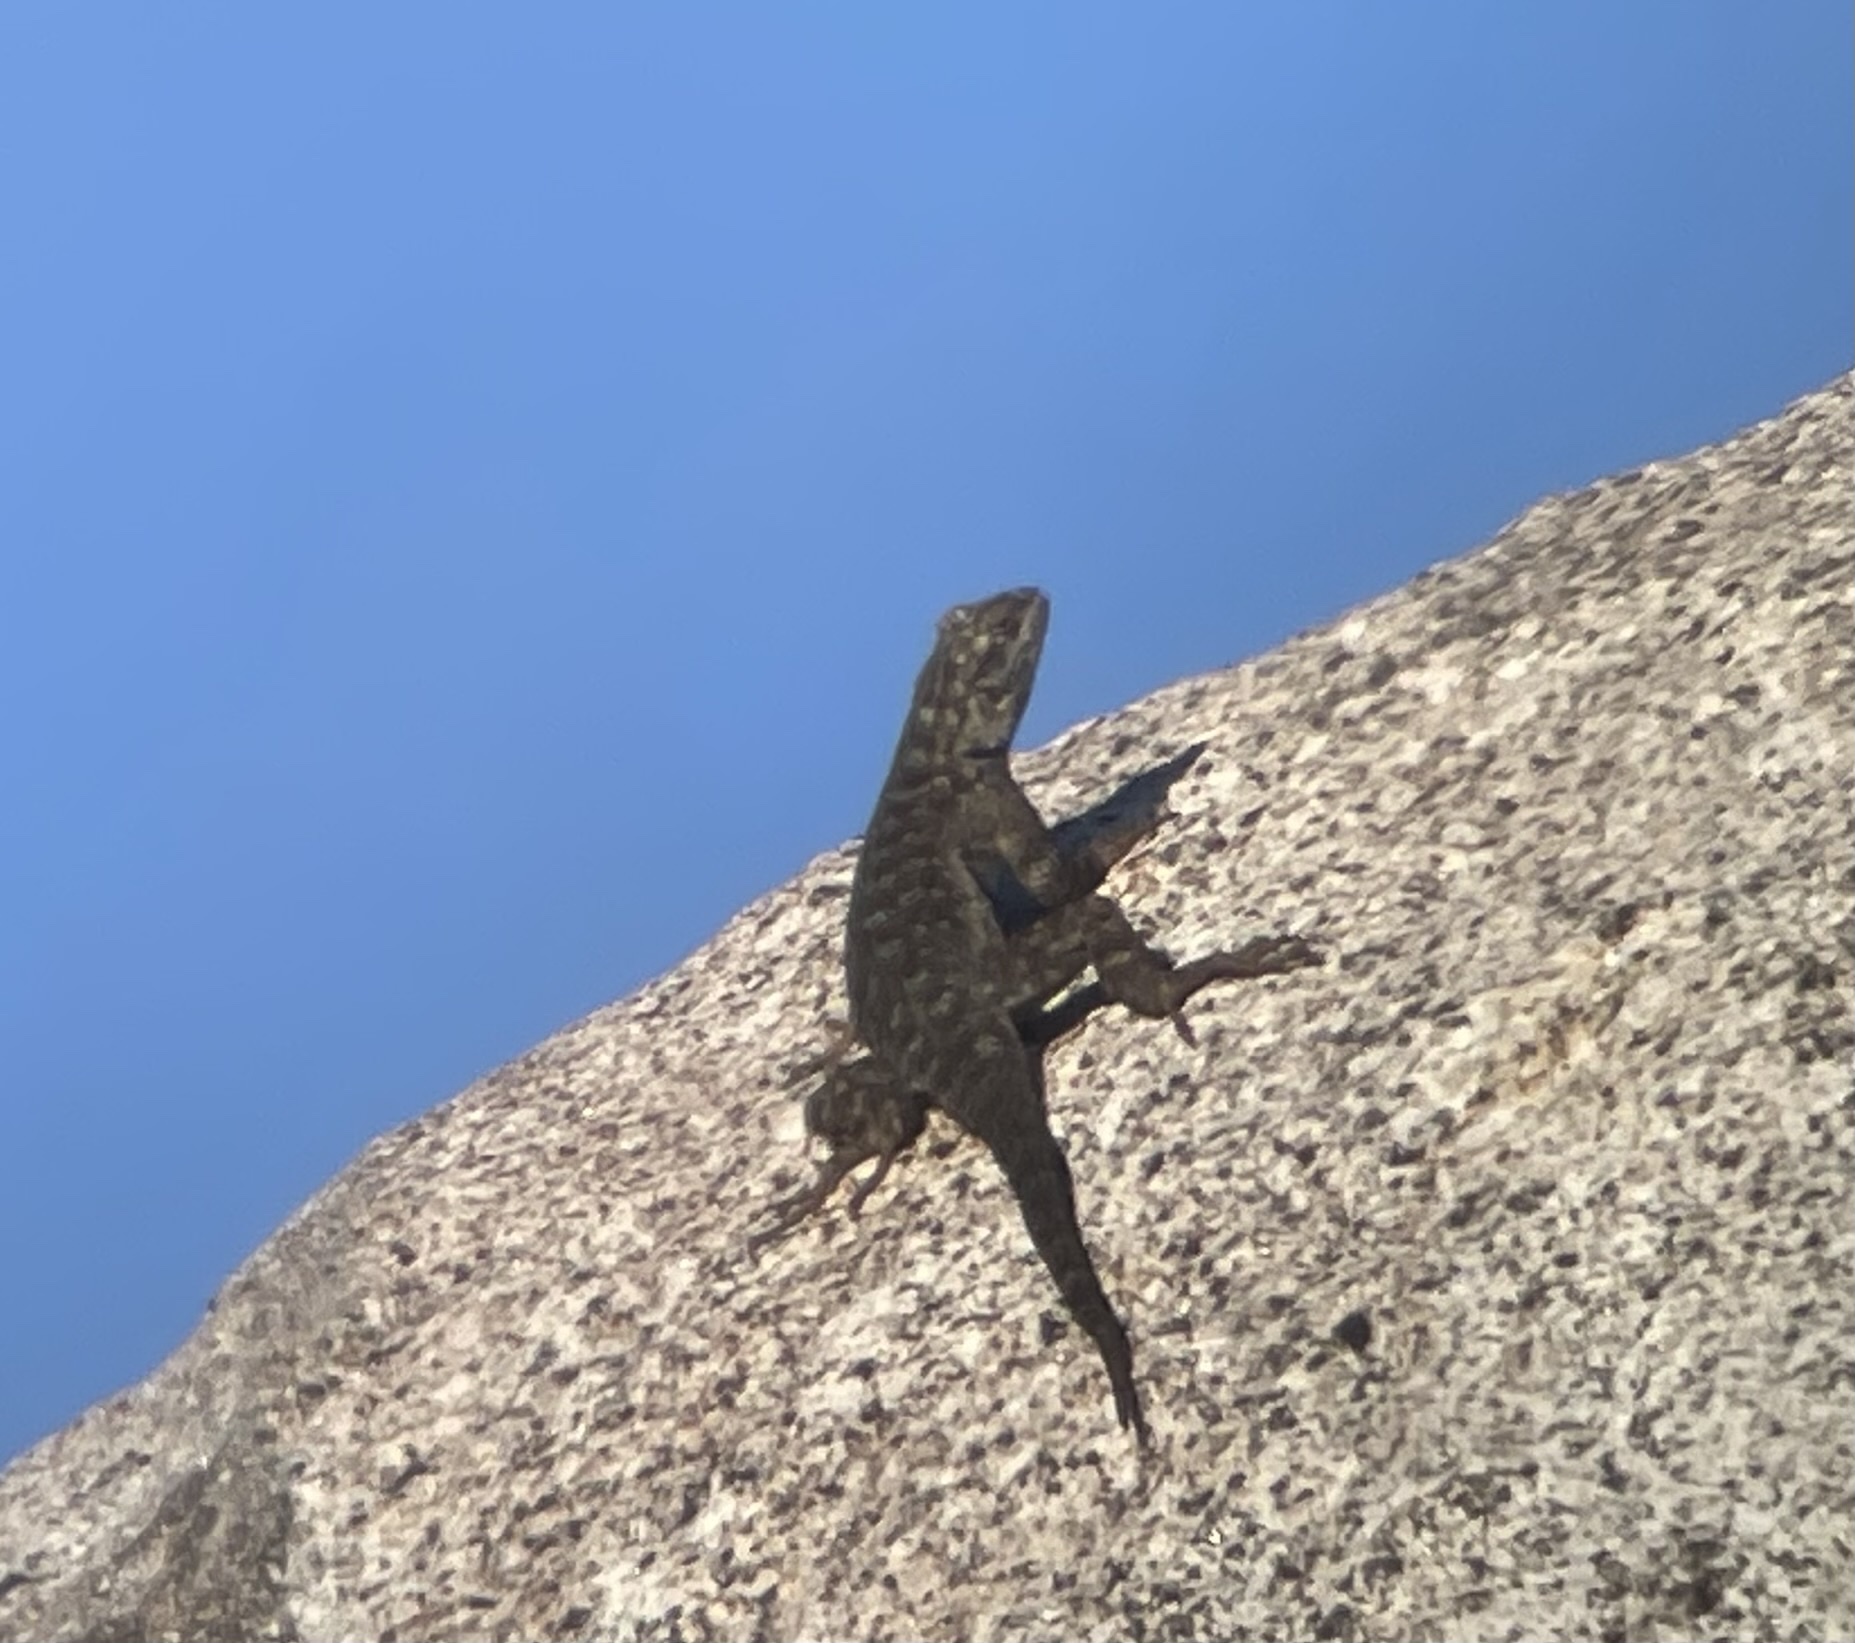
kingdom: Animalia
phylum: Chordata
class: Squamata
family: Phrynosomatidae
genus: Sceloporus
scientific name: Sceloporus occidentalis
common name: Western fence lizard
